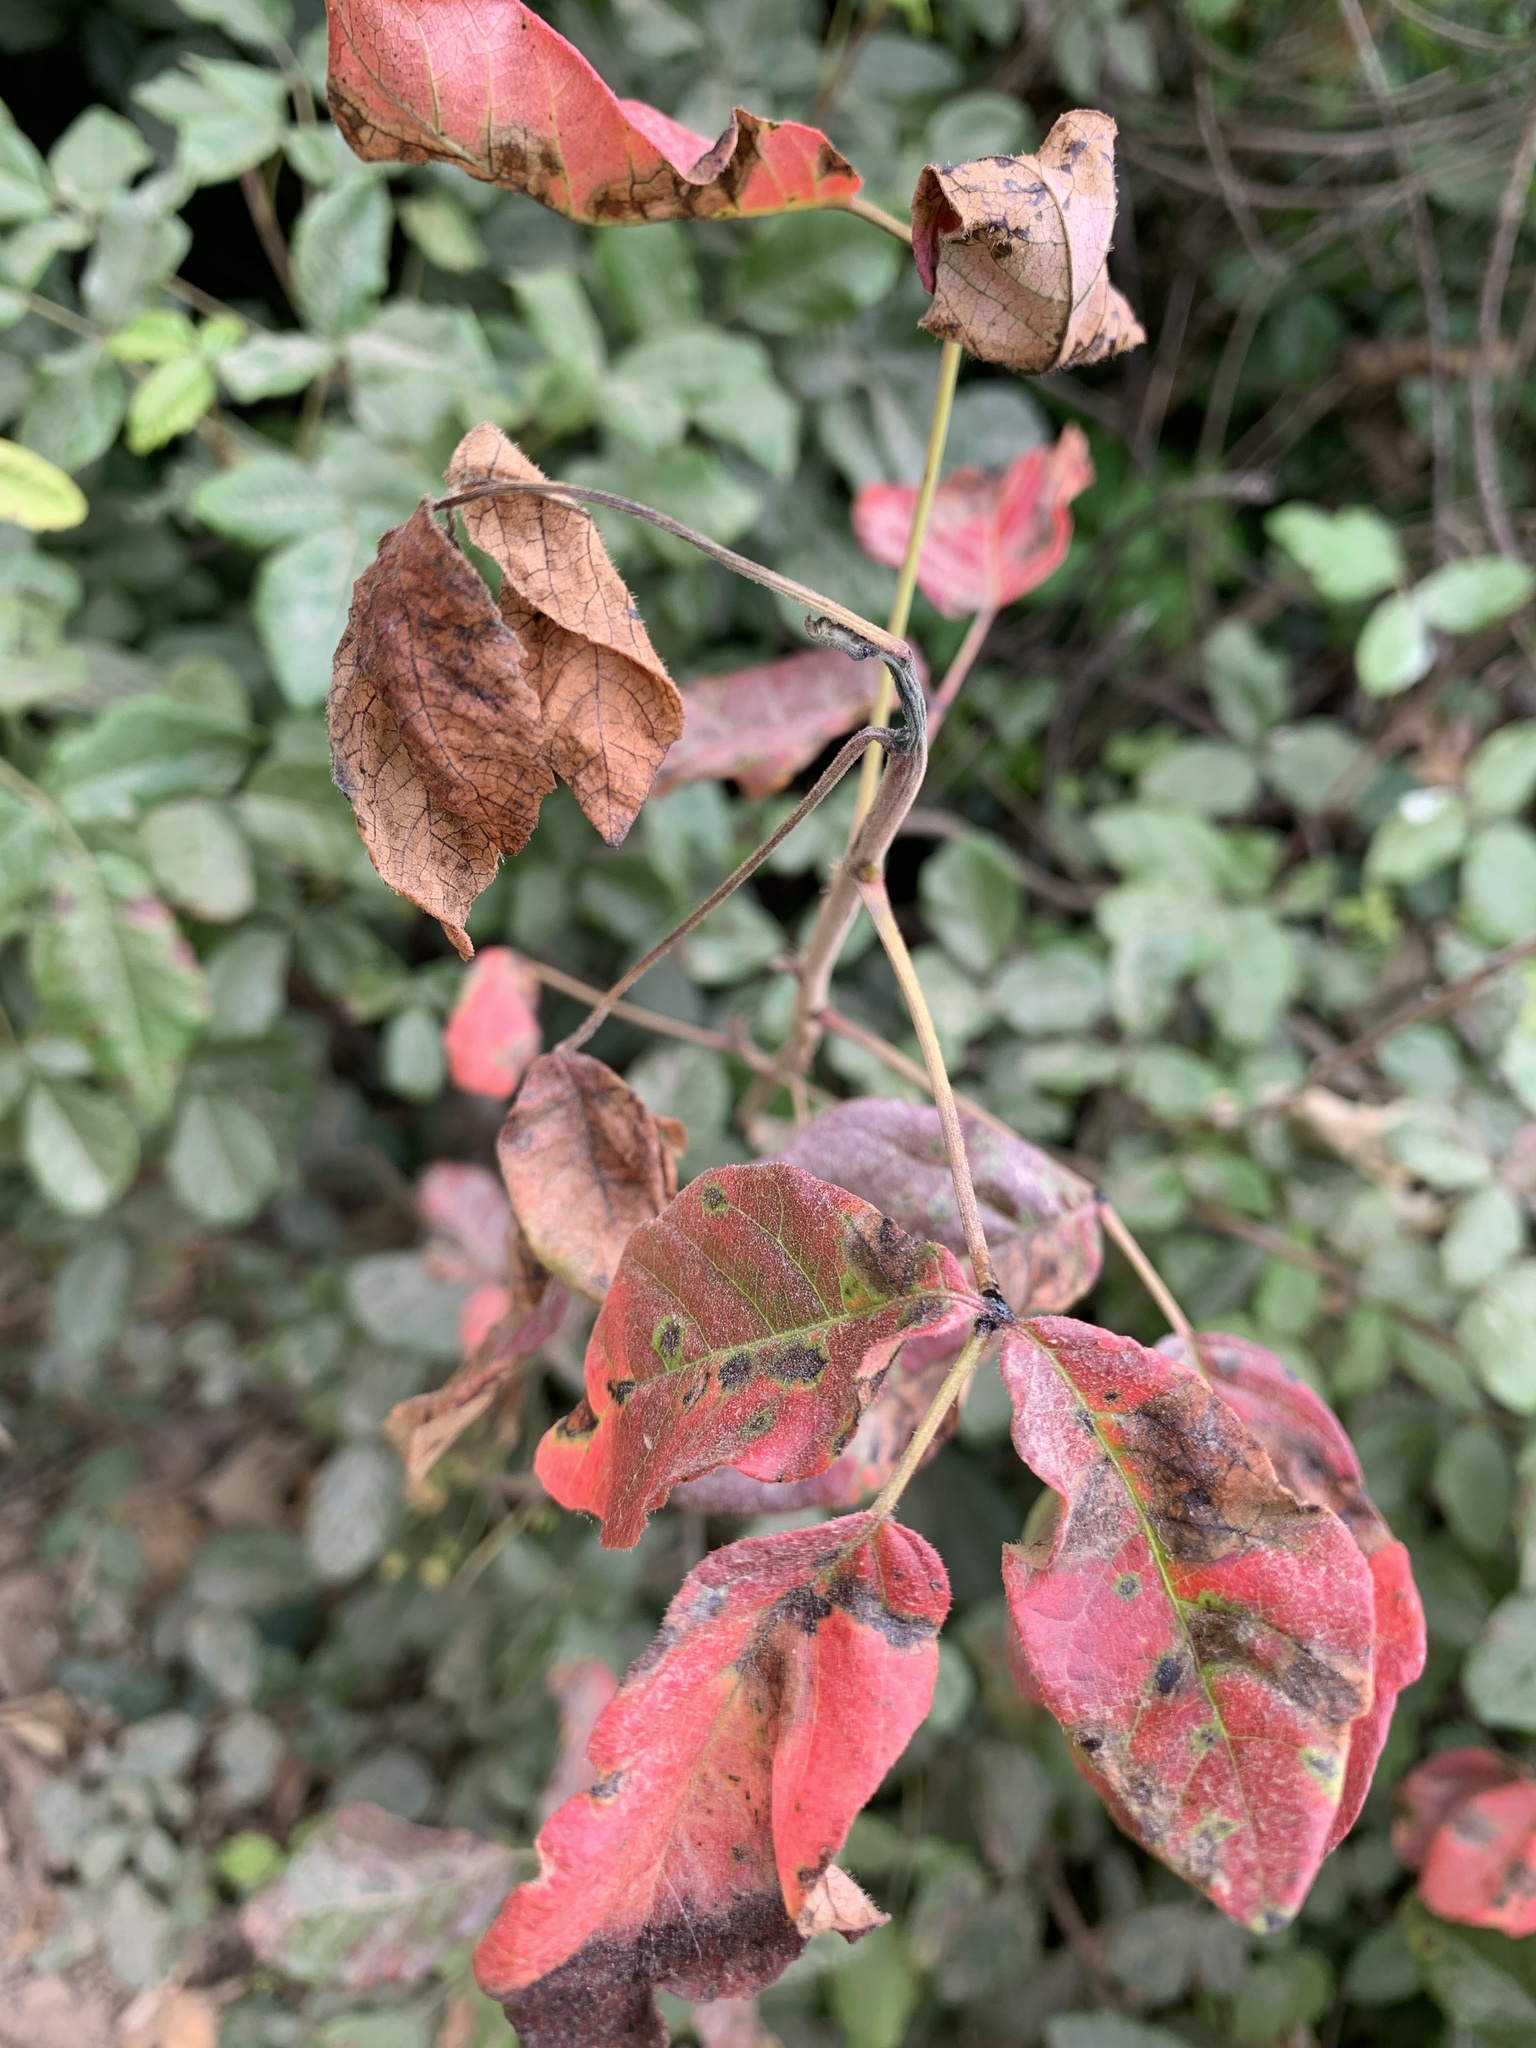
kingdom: Plantae
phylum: Tracheophyta
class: Magnoliopsida
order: Sapindales
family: Anacardiaceae
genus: Toxicodendron
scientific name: Toxicodendron diversilobum
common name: Pacific poison-oak
